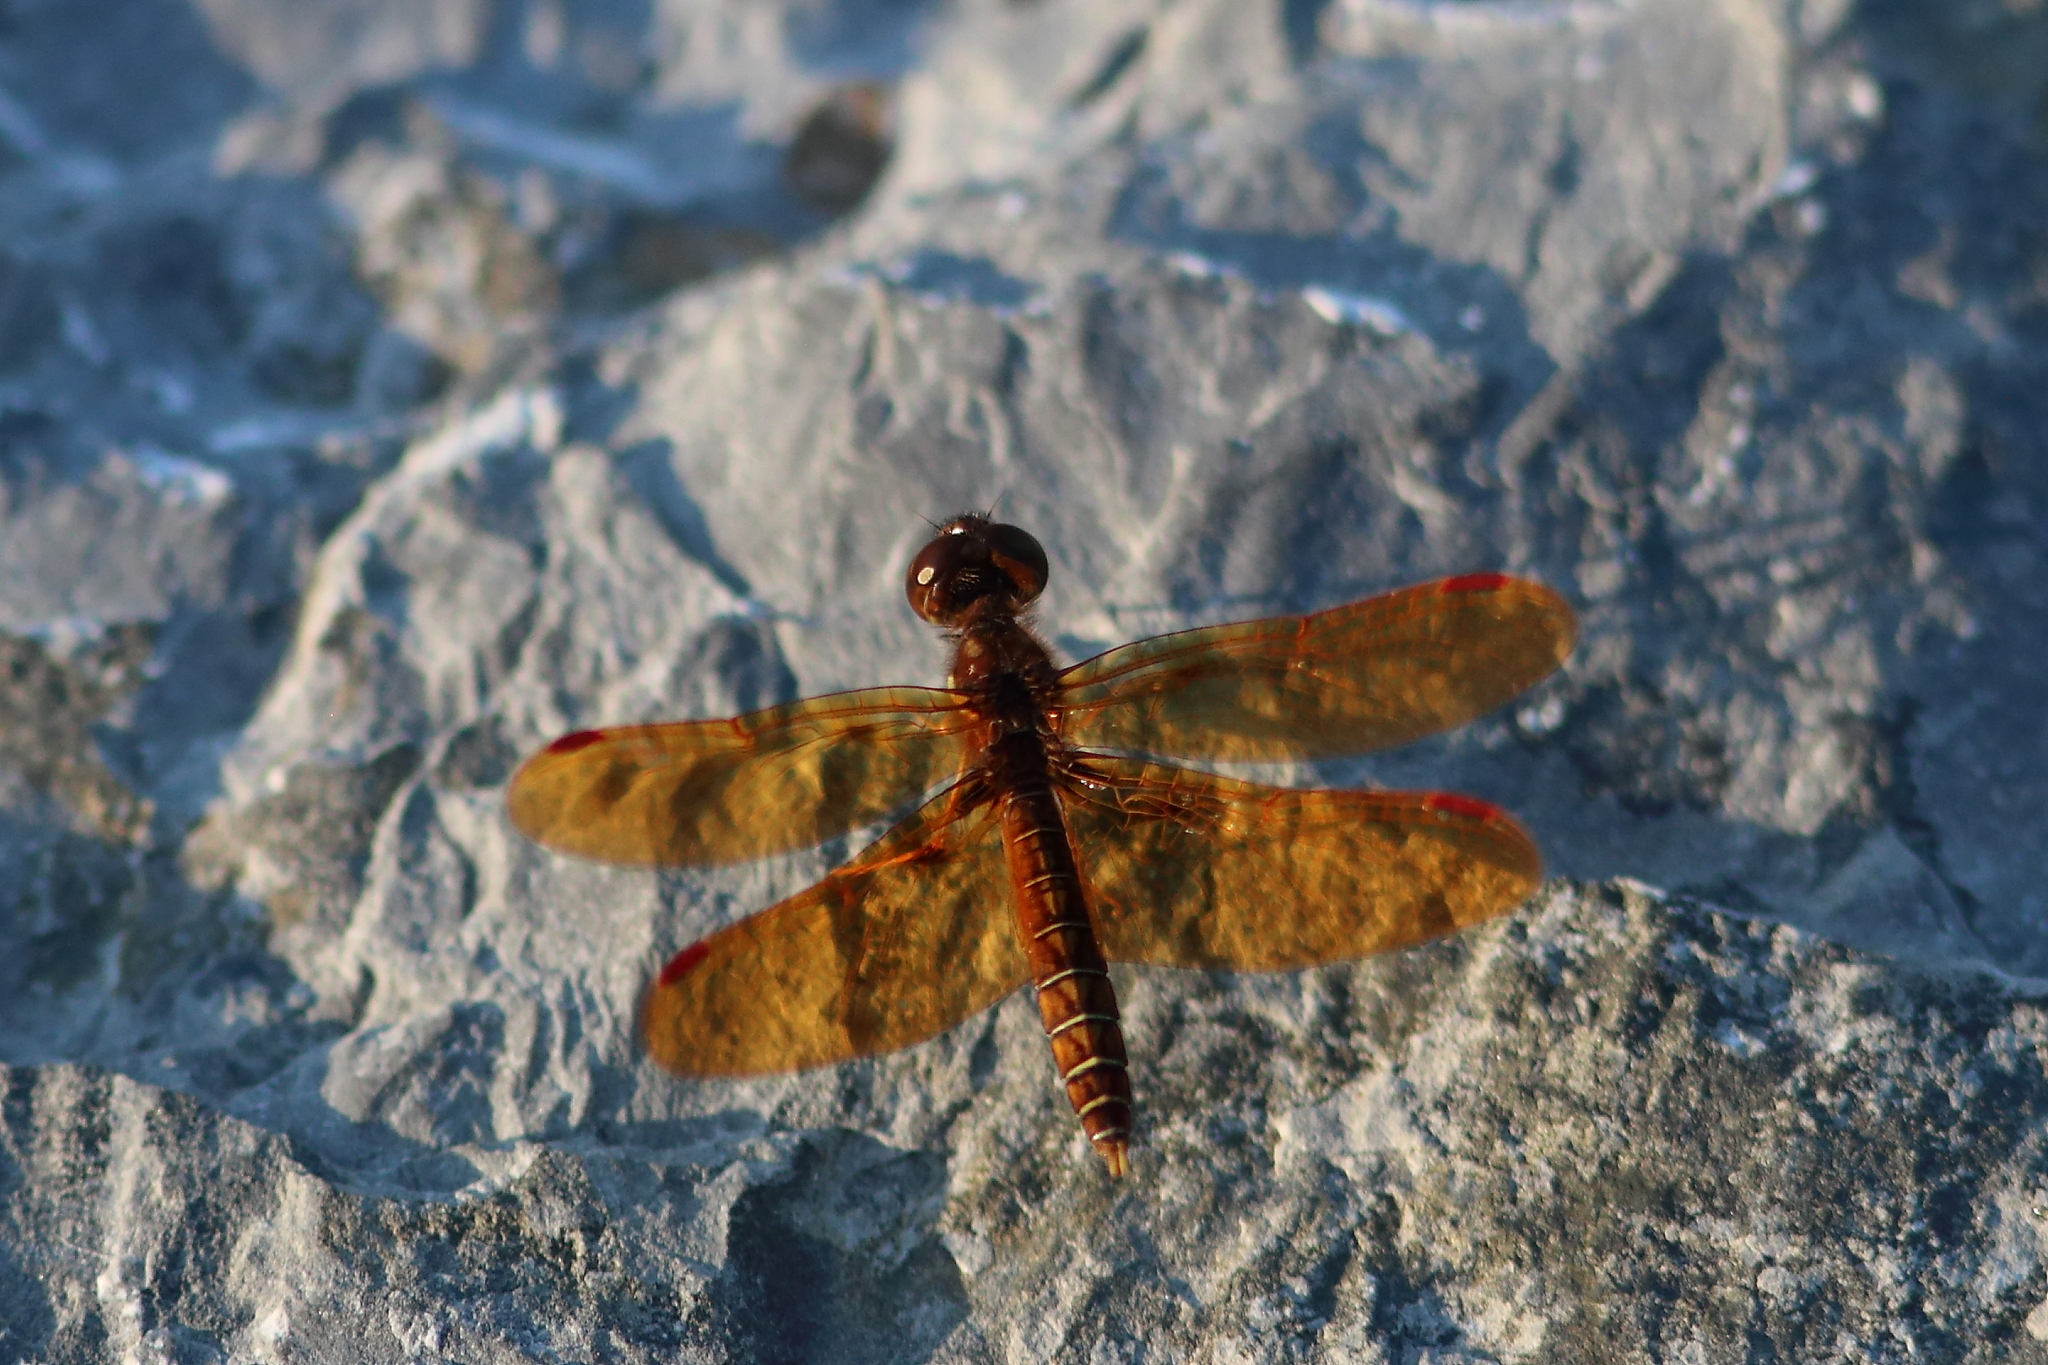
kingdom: Animalia
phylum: Arthropoda
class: Insecta
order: Odonata
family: Libellulidae
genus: Perithemis
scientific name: Perithemis tenera
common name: Eastern amberwing
